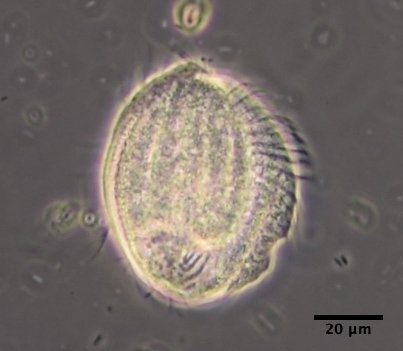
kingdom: Chromista
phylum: Ciliophora
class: Spirotrichea
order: Phacodiniida
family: Phacodiniidae
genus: Phacodinium
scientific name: Phacodinium metchnikoffi
